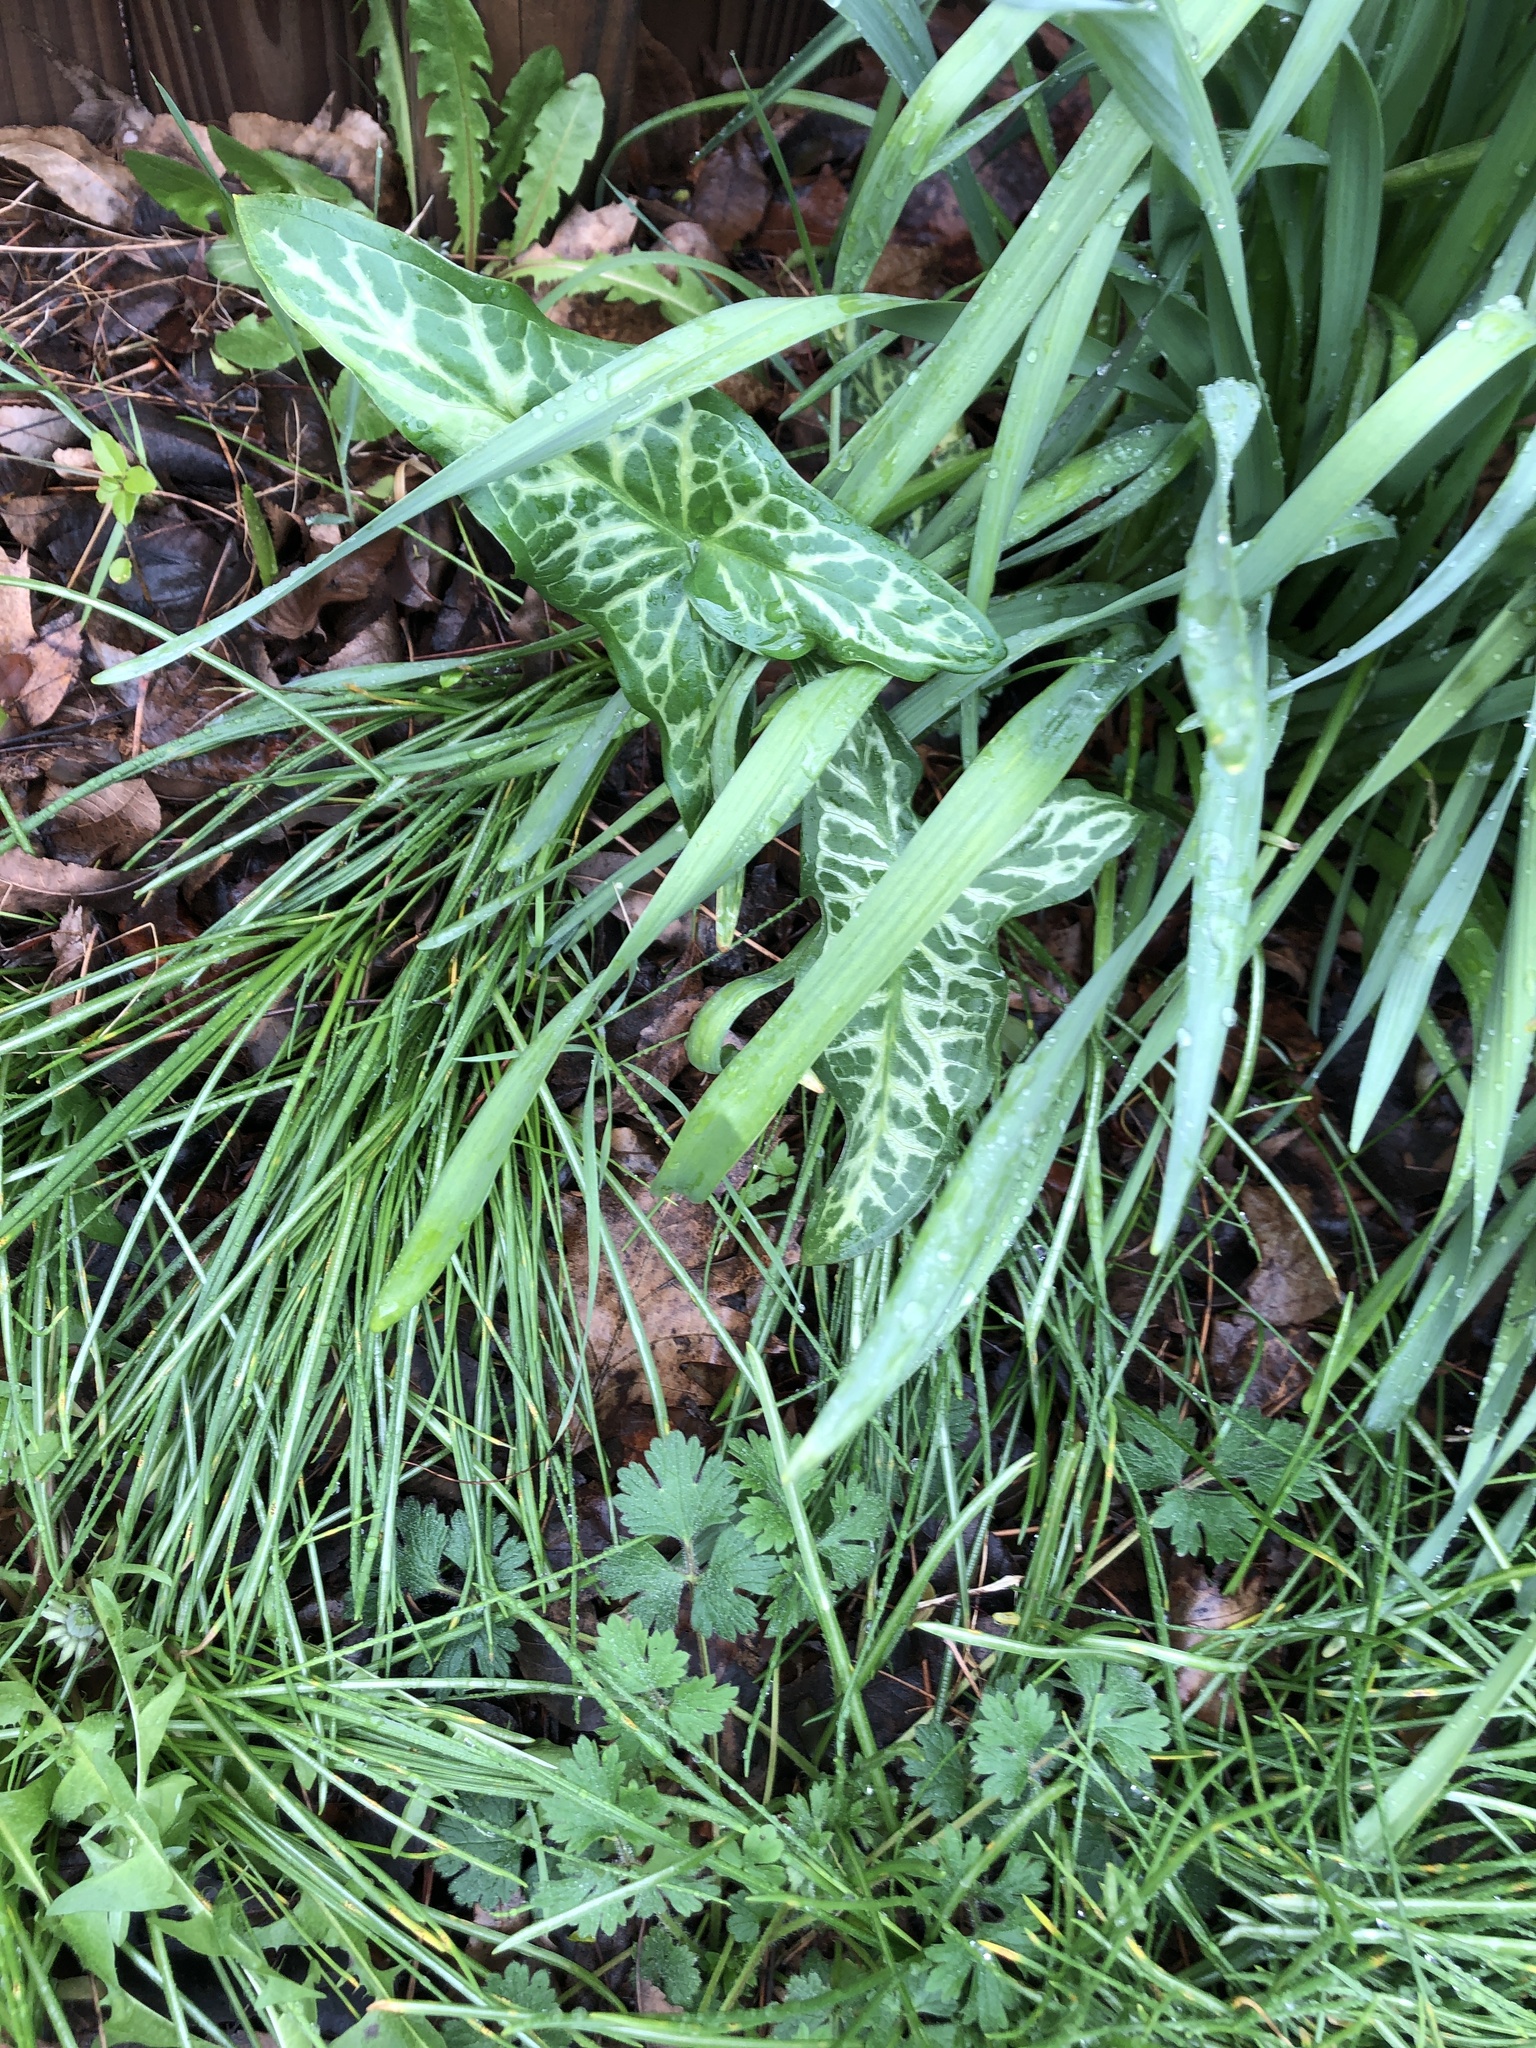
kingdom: Plantae
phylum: Tracheophyta
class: Liliopsida
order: Alismatales
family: Araceae
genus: Arum
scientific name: Arum italicum
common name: Italian lords-and-ladies
